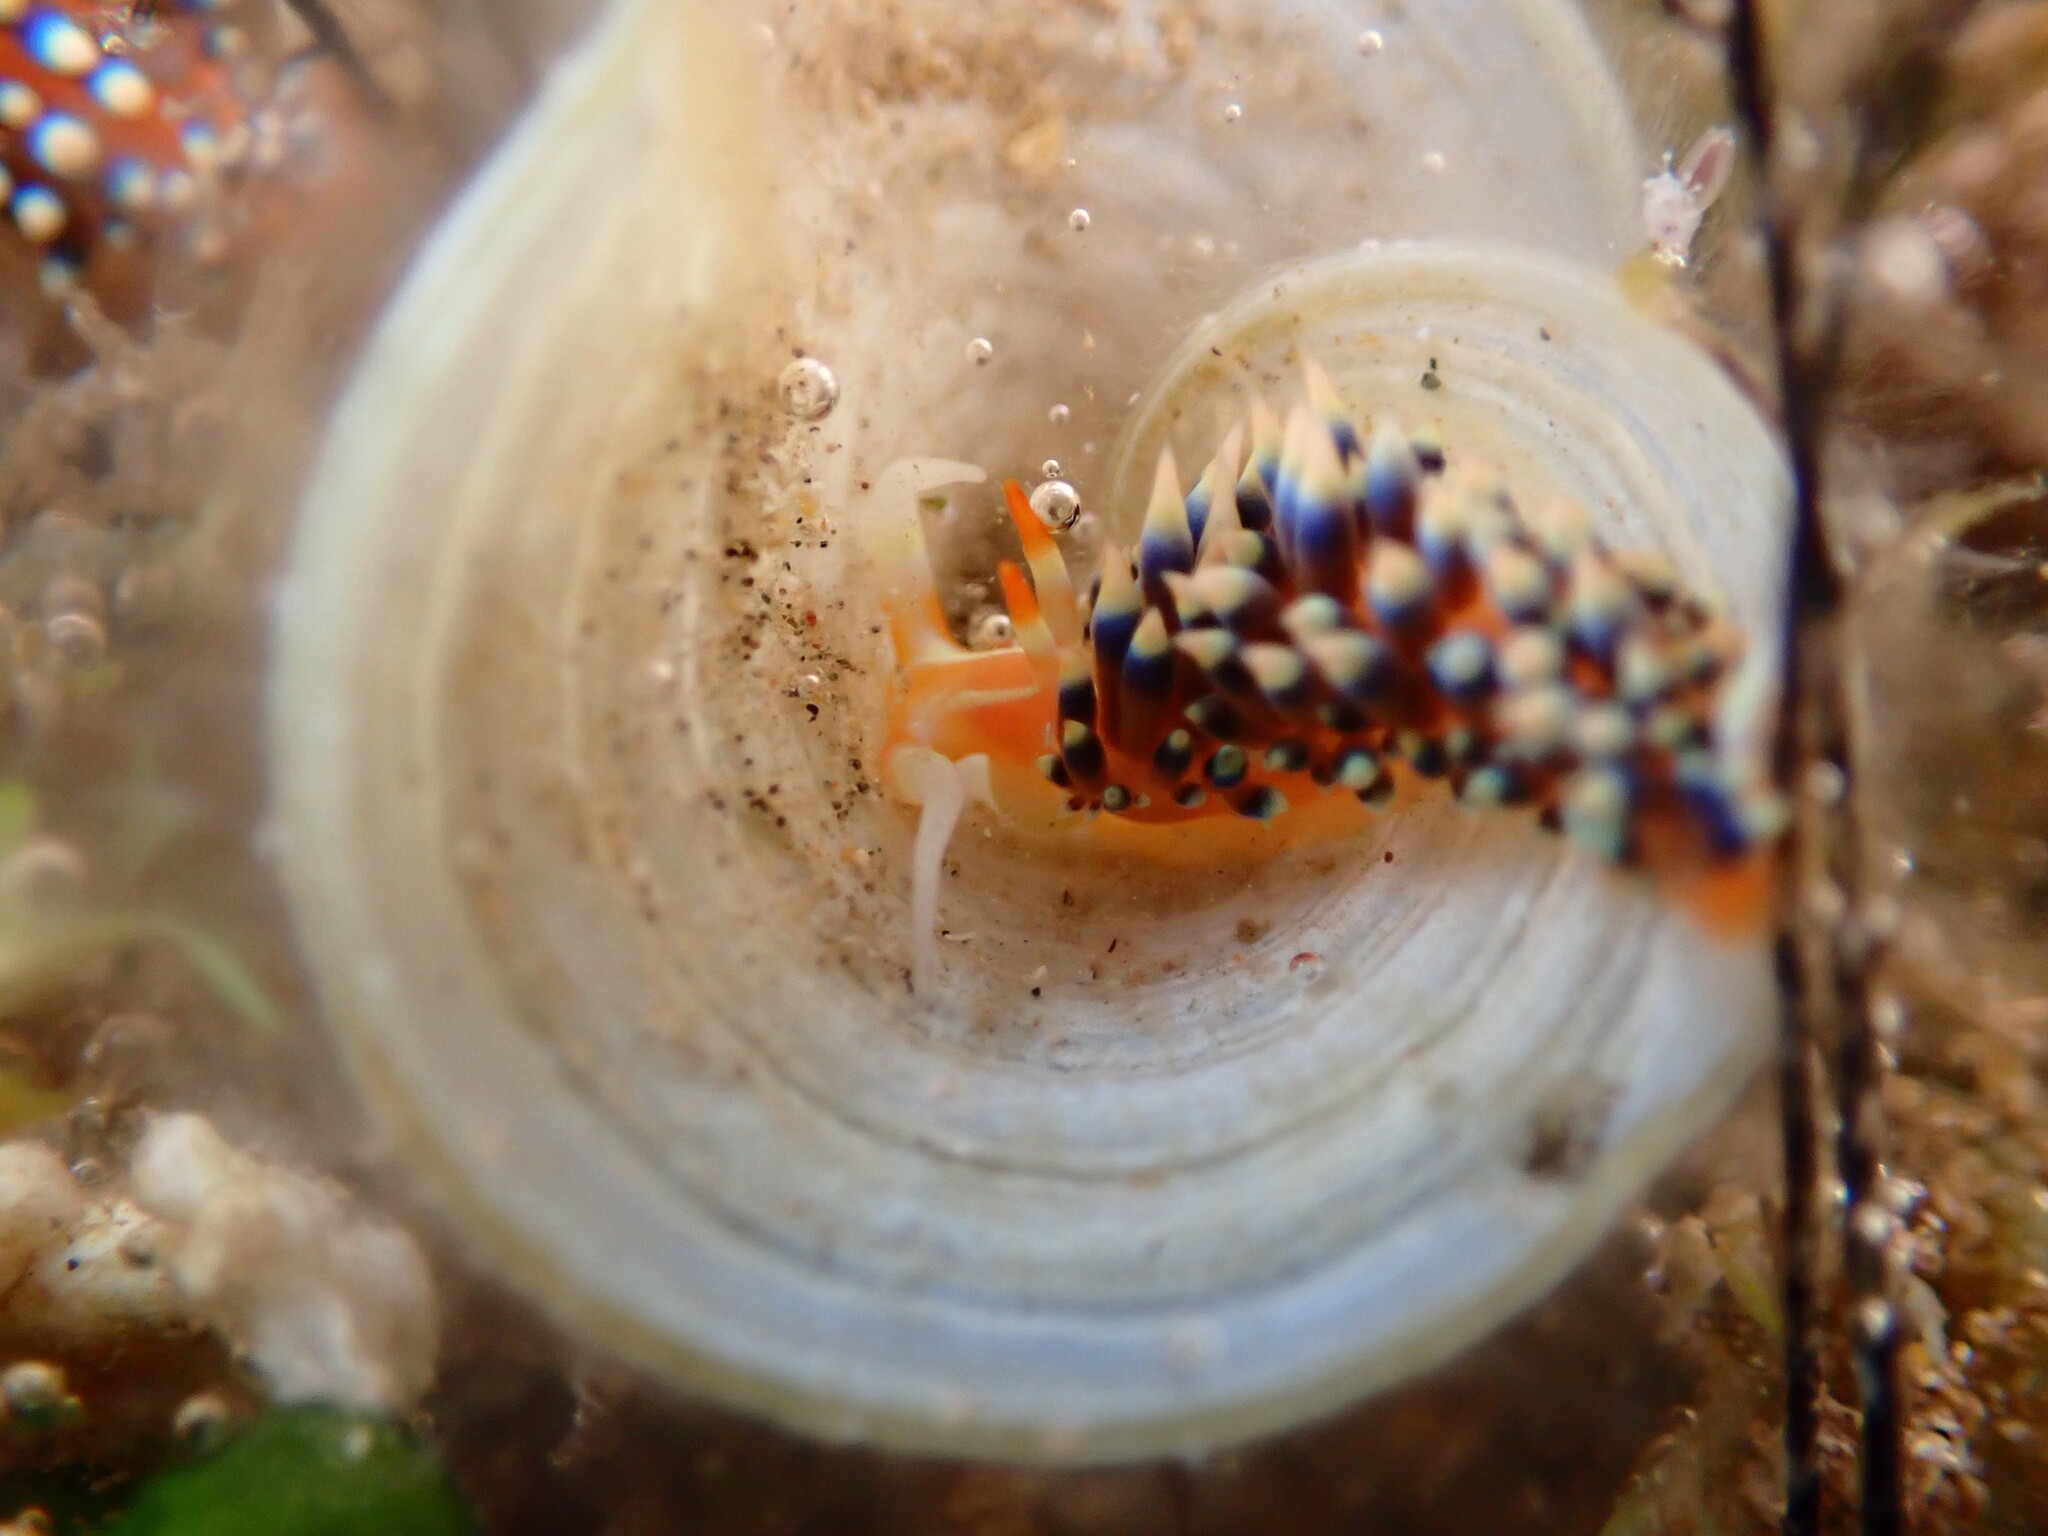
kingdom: Animalia
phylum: Mollusca
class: Gastropoda
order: Nudibranchia
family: Facelinidae
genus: Caloria
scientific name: Caloria indica
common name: Sea slug
